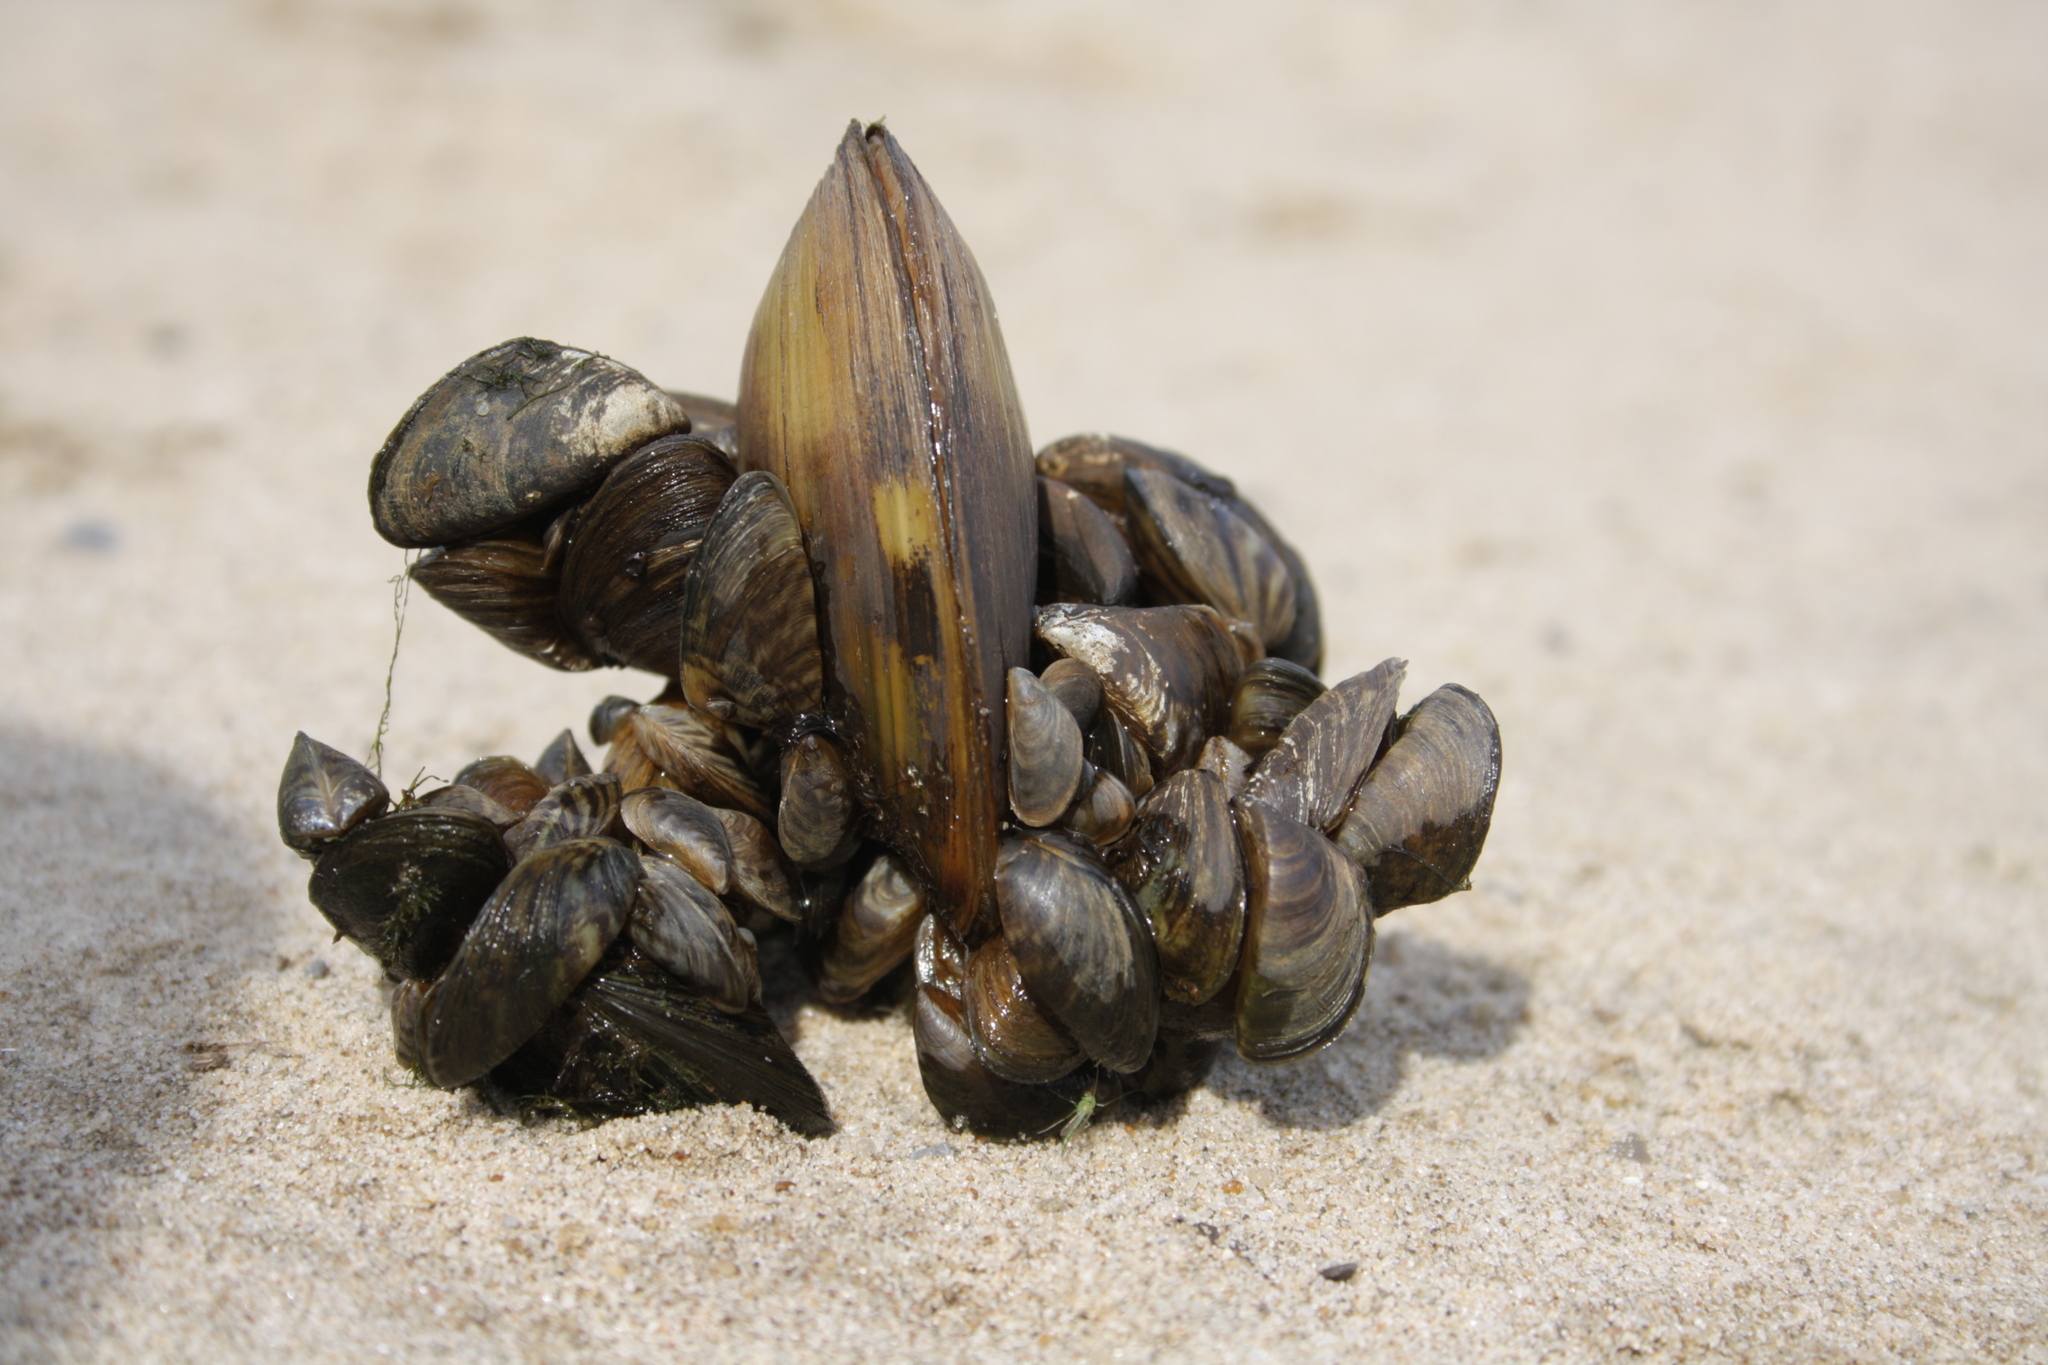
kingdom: Animalia
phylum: Mollusca
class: Bivalvia
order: Unionida
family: Unionidae
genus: Unio
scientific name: Unio tumidus
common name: Swollen river mussel
